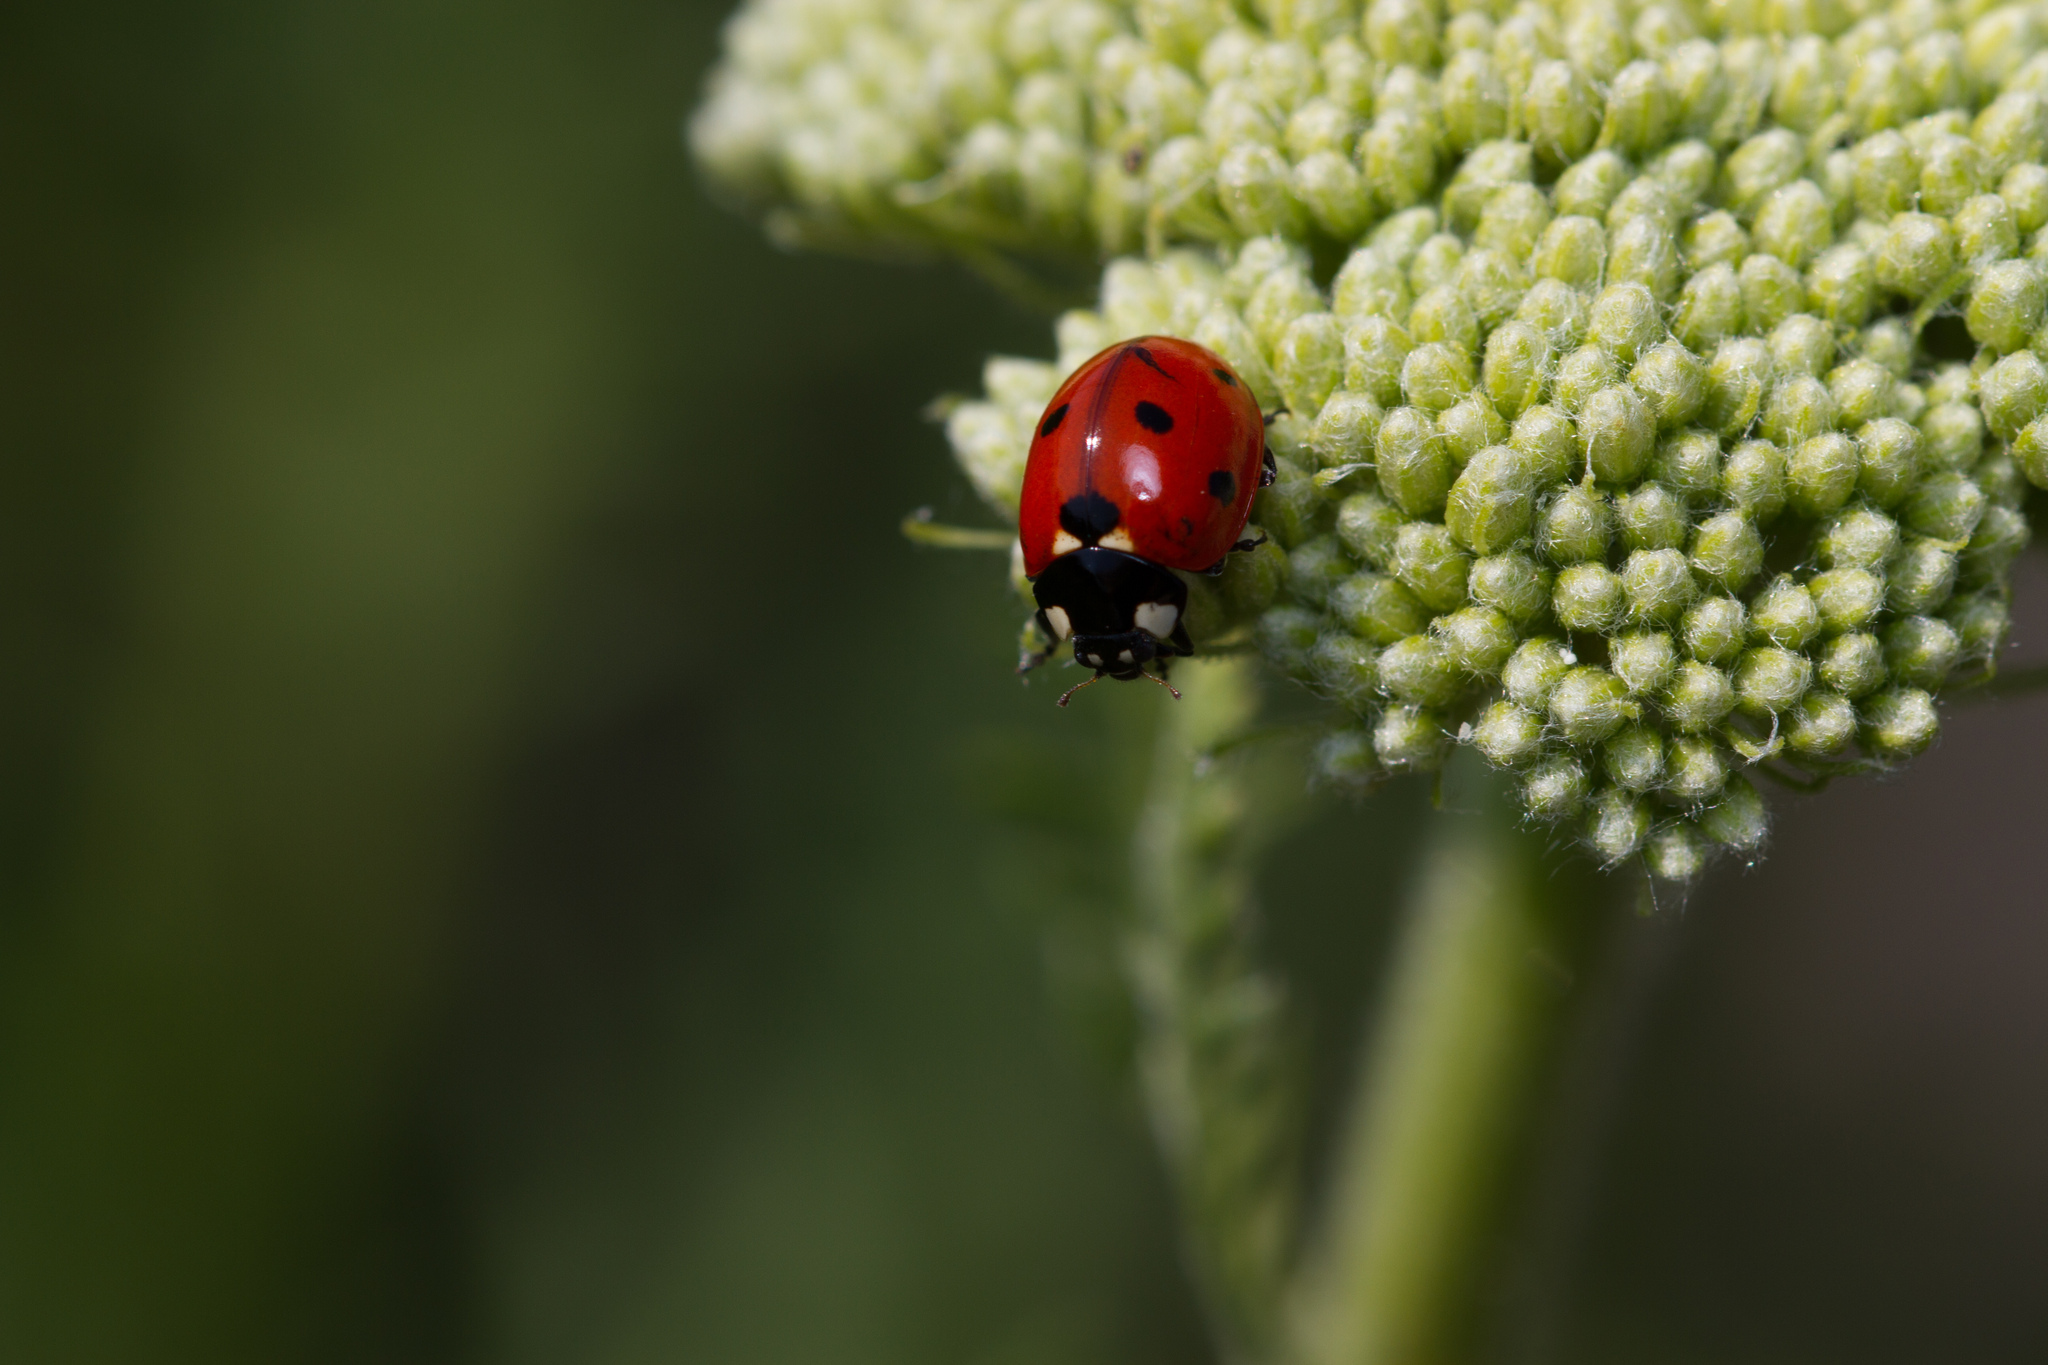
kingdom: Animalia
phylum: Arthropoda
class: Insecta
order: Coleoptera
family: Coccinellidae
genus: Coccinella
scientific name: Coccinella septempunctata
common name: Sevenspotted lady beetle
